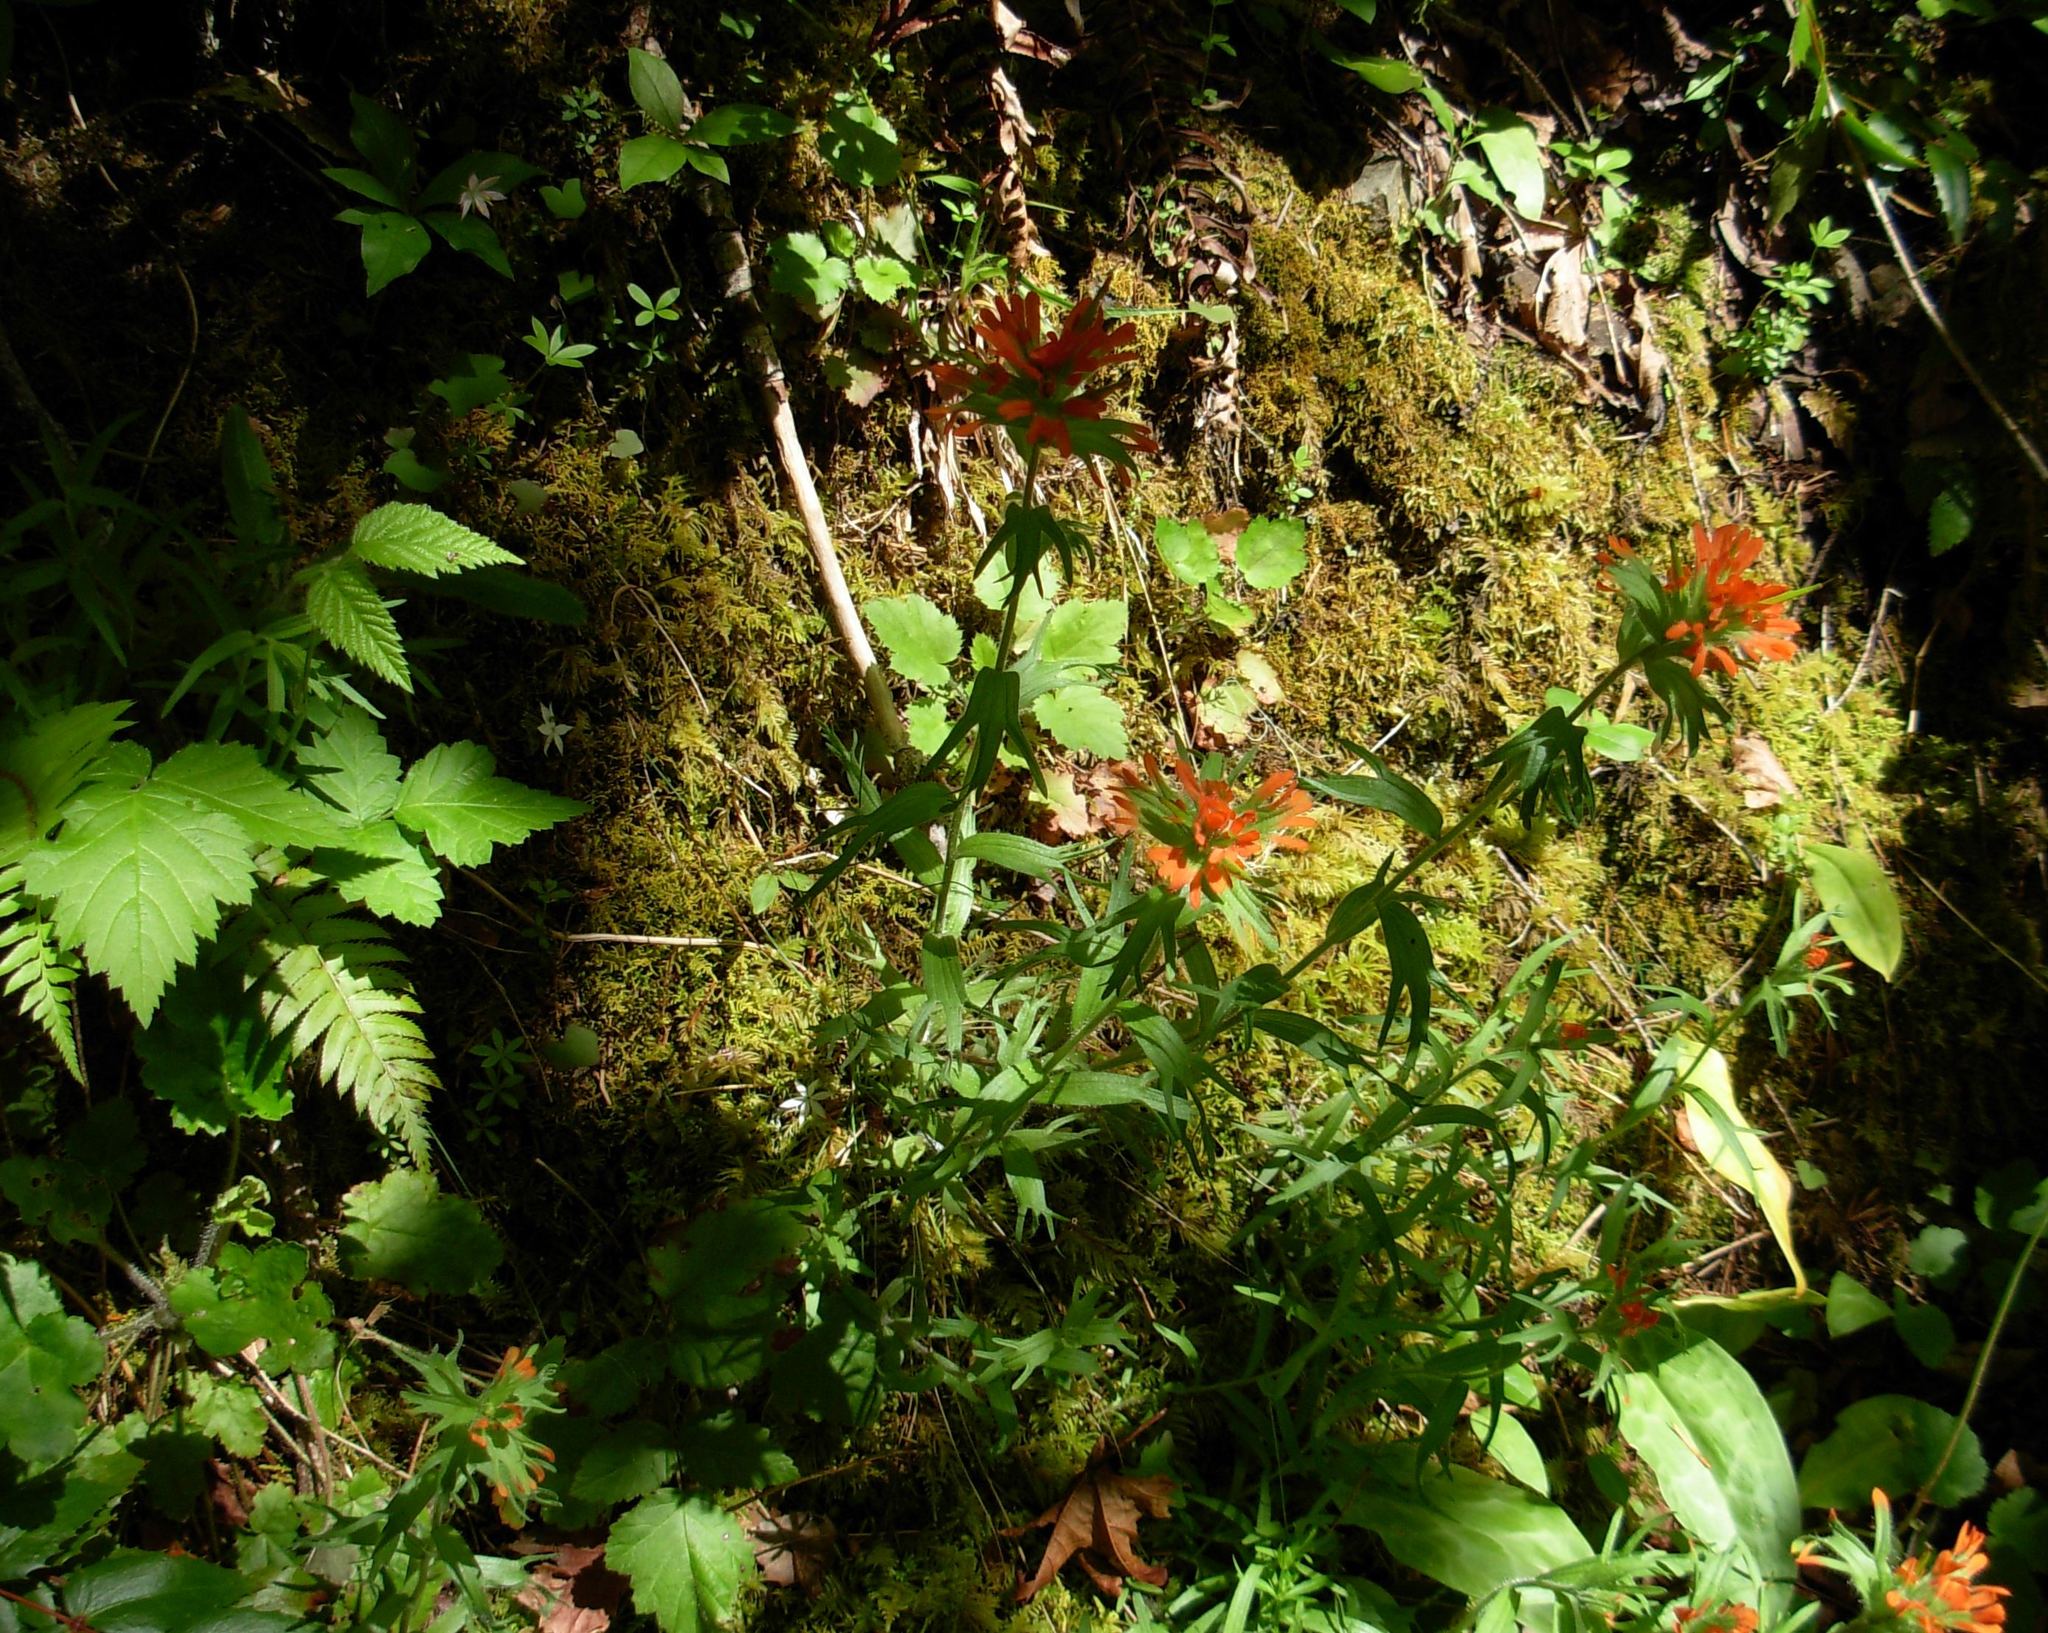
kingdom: Plantae
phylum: Tracheophyta
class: Magnoliopsida
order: Lamiales
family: Orobanchaceae
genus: Castilleja
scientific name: Castilleja hispida
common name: Bristly paintbrush
